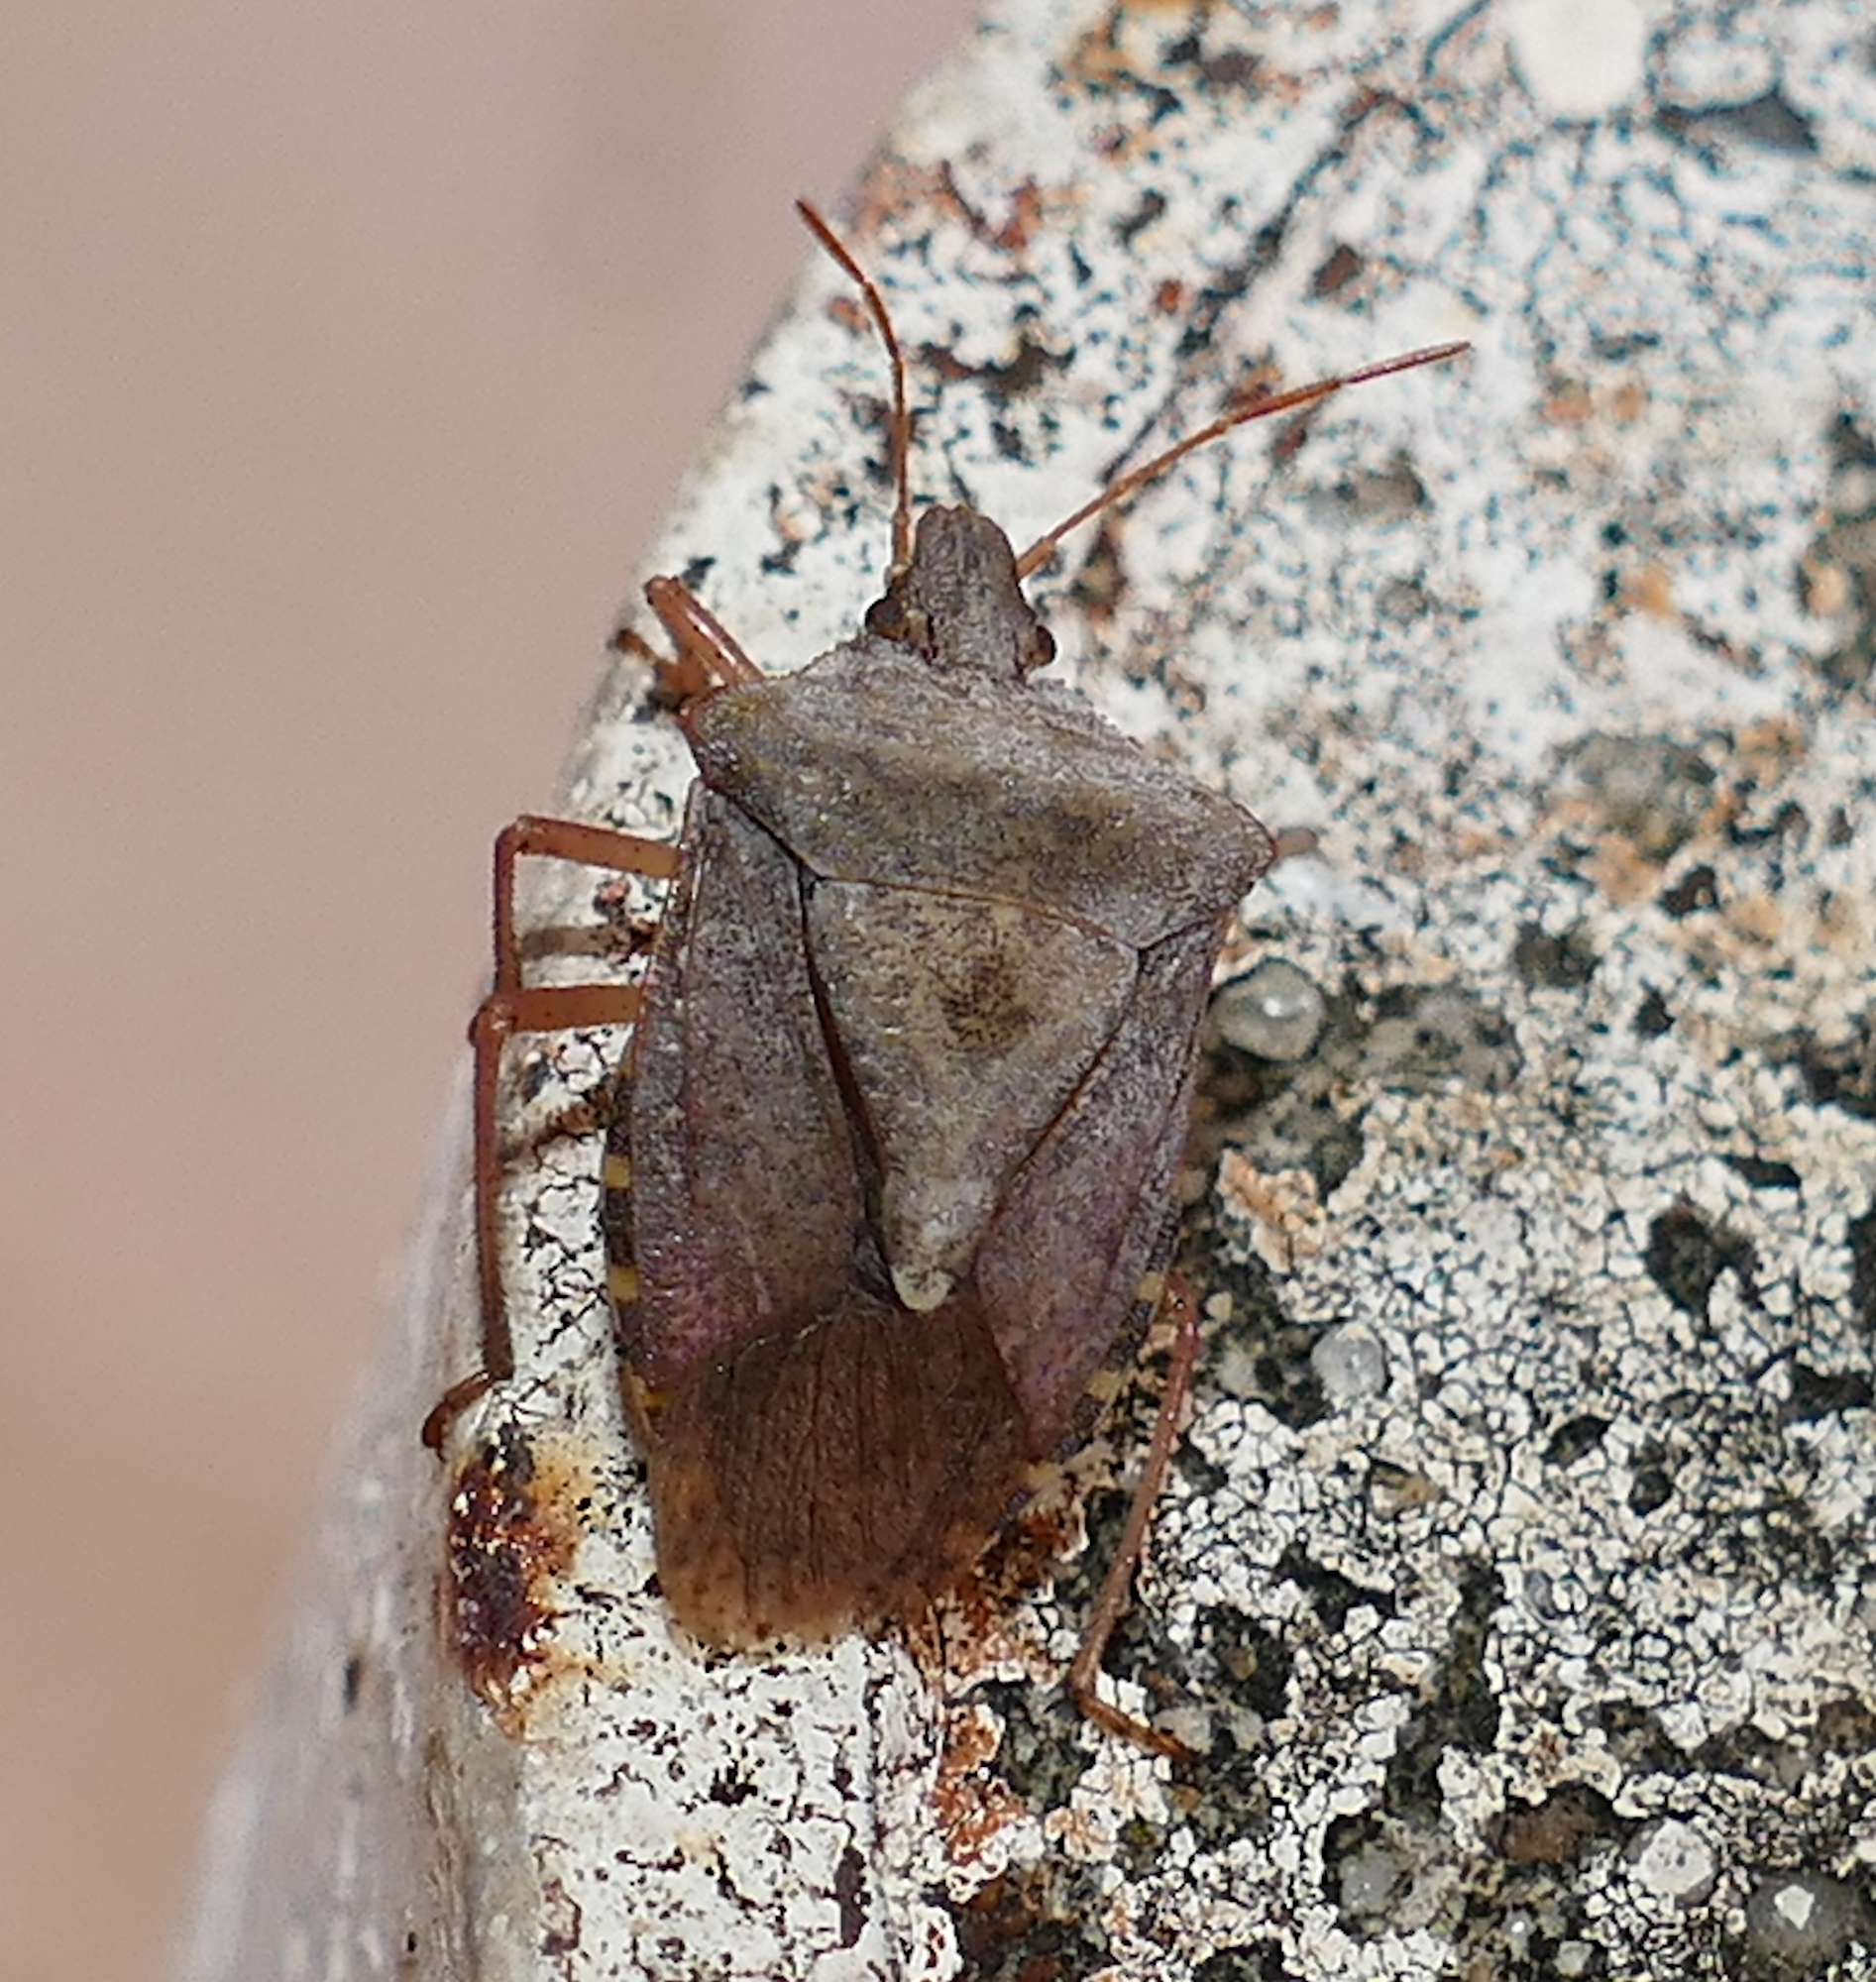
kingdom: Animalia
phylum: Arthropoda
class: Insecta
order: Hemiptera
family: Pentatomidae
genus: Euschistus
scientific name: Euschistus servus
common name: Brown stink bug
